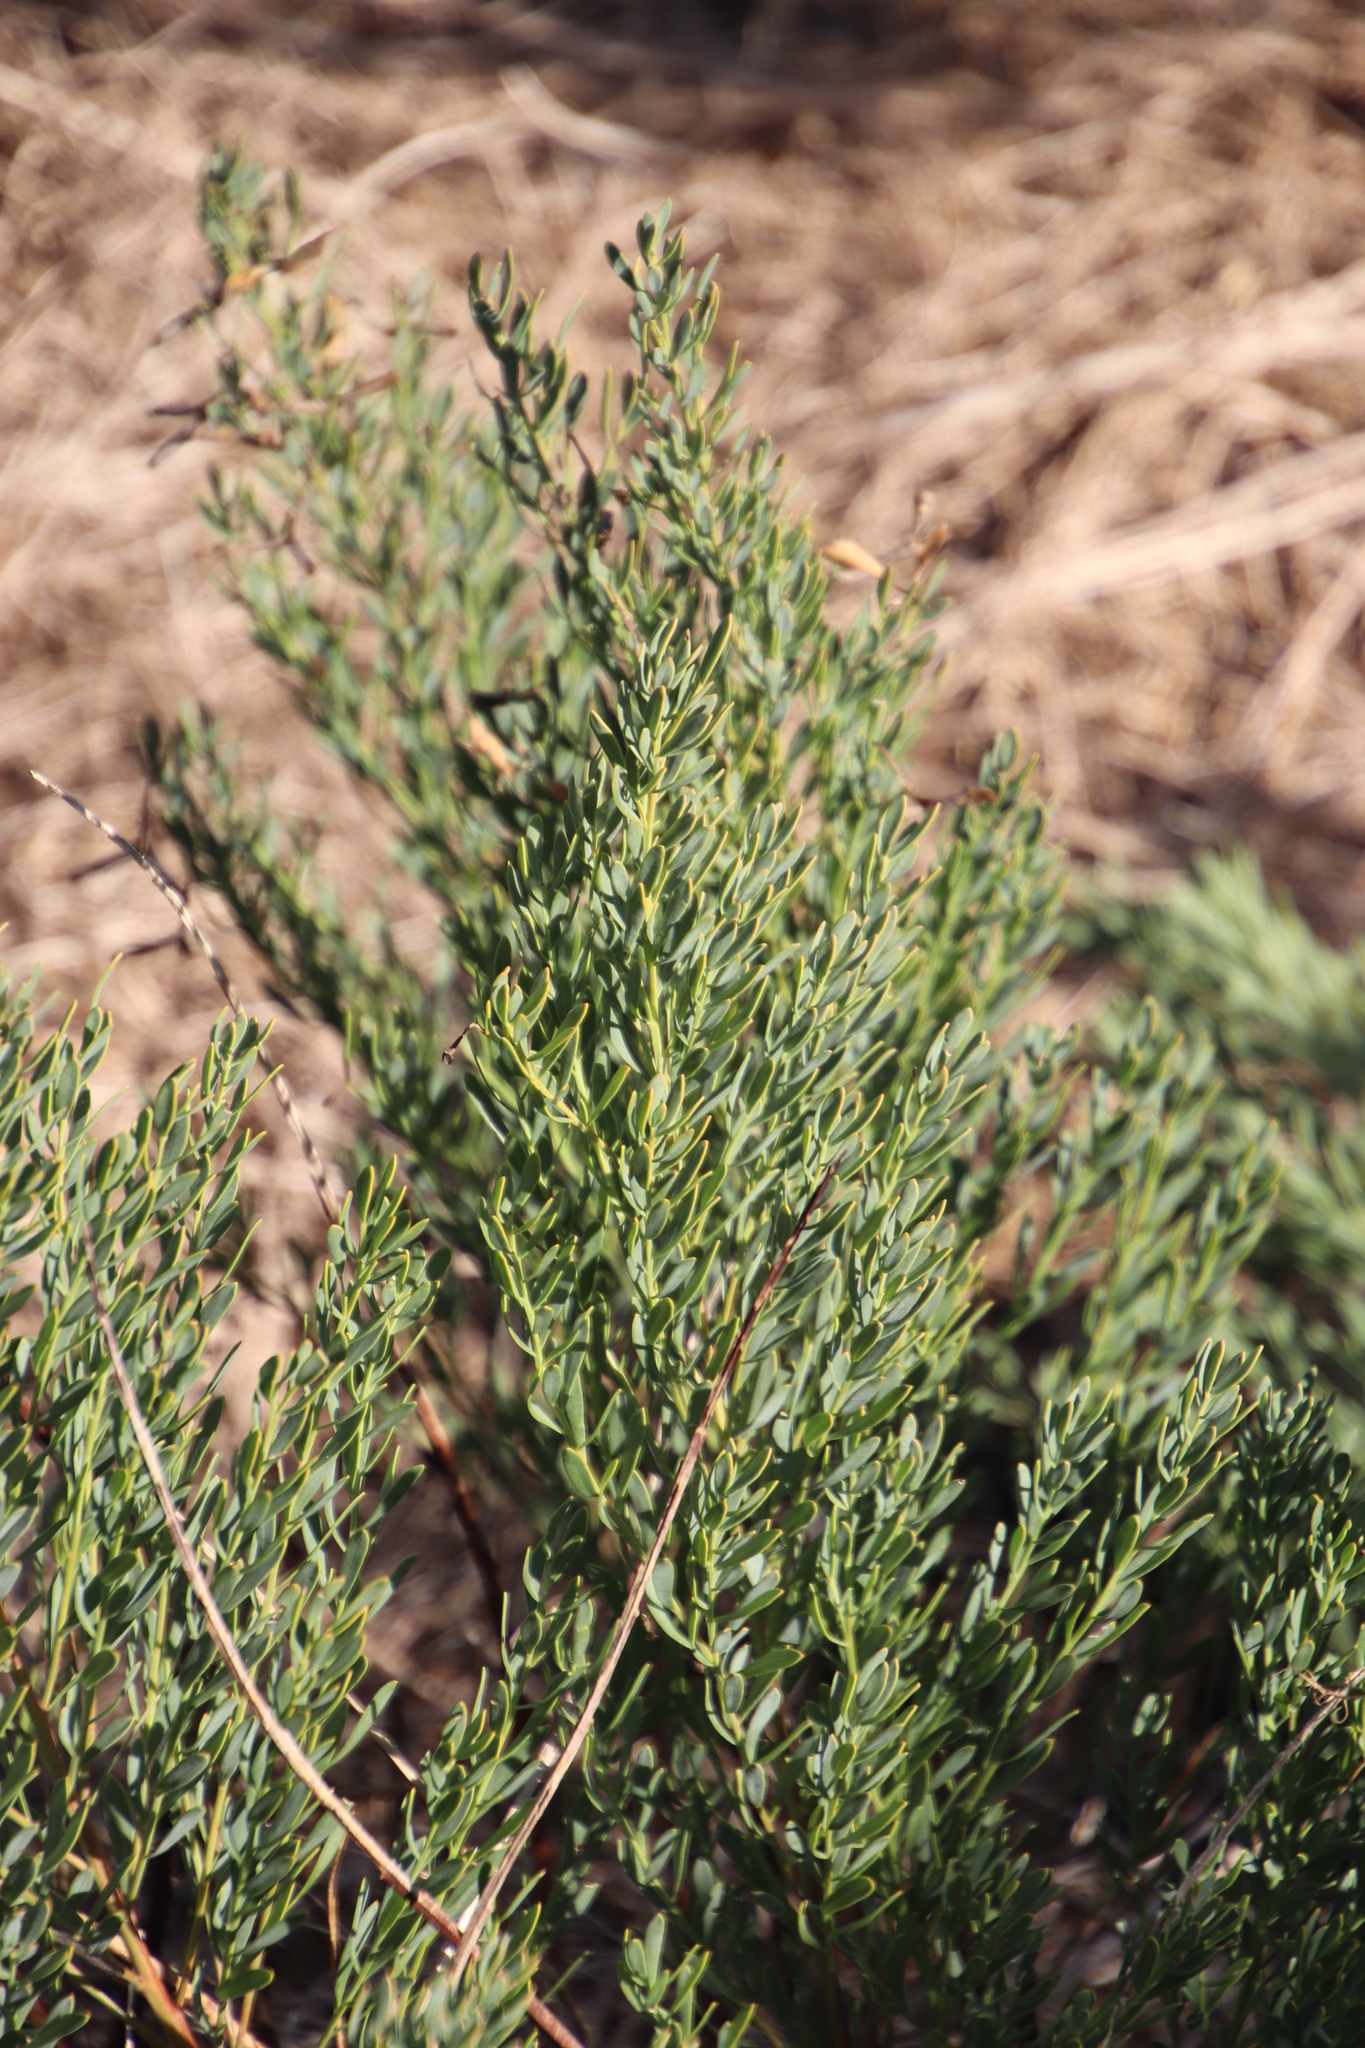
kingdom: Plantae
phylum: Tracheophyta
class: Magnoliopsida
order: Fabales
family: Fabaceae
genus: Rafnia
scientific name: Rafnia capensis
